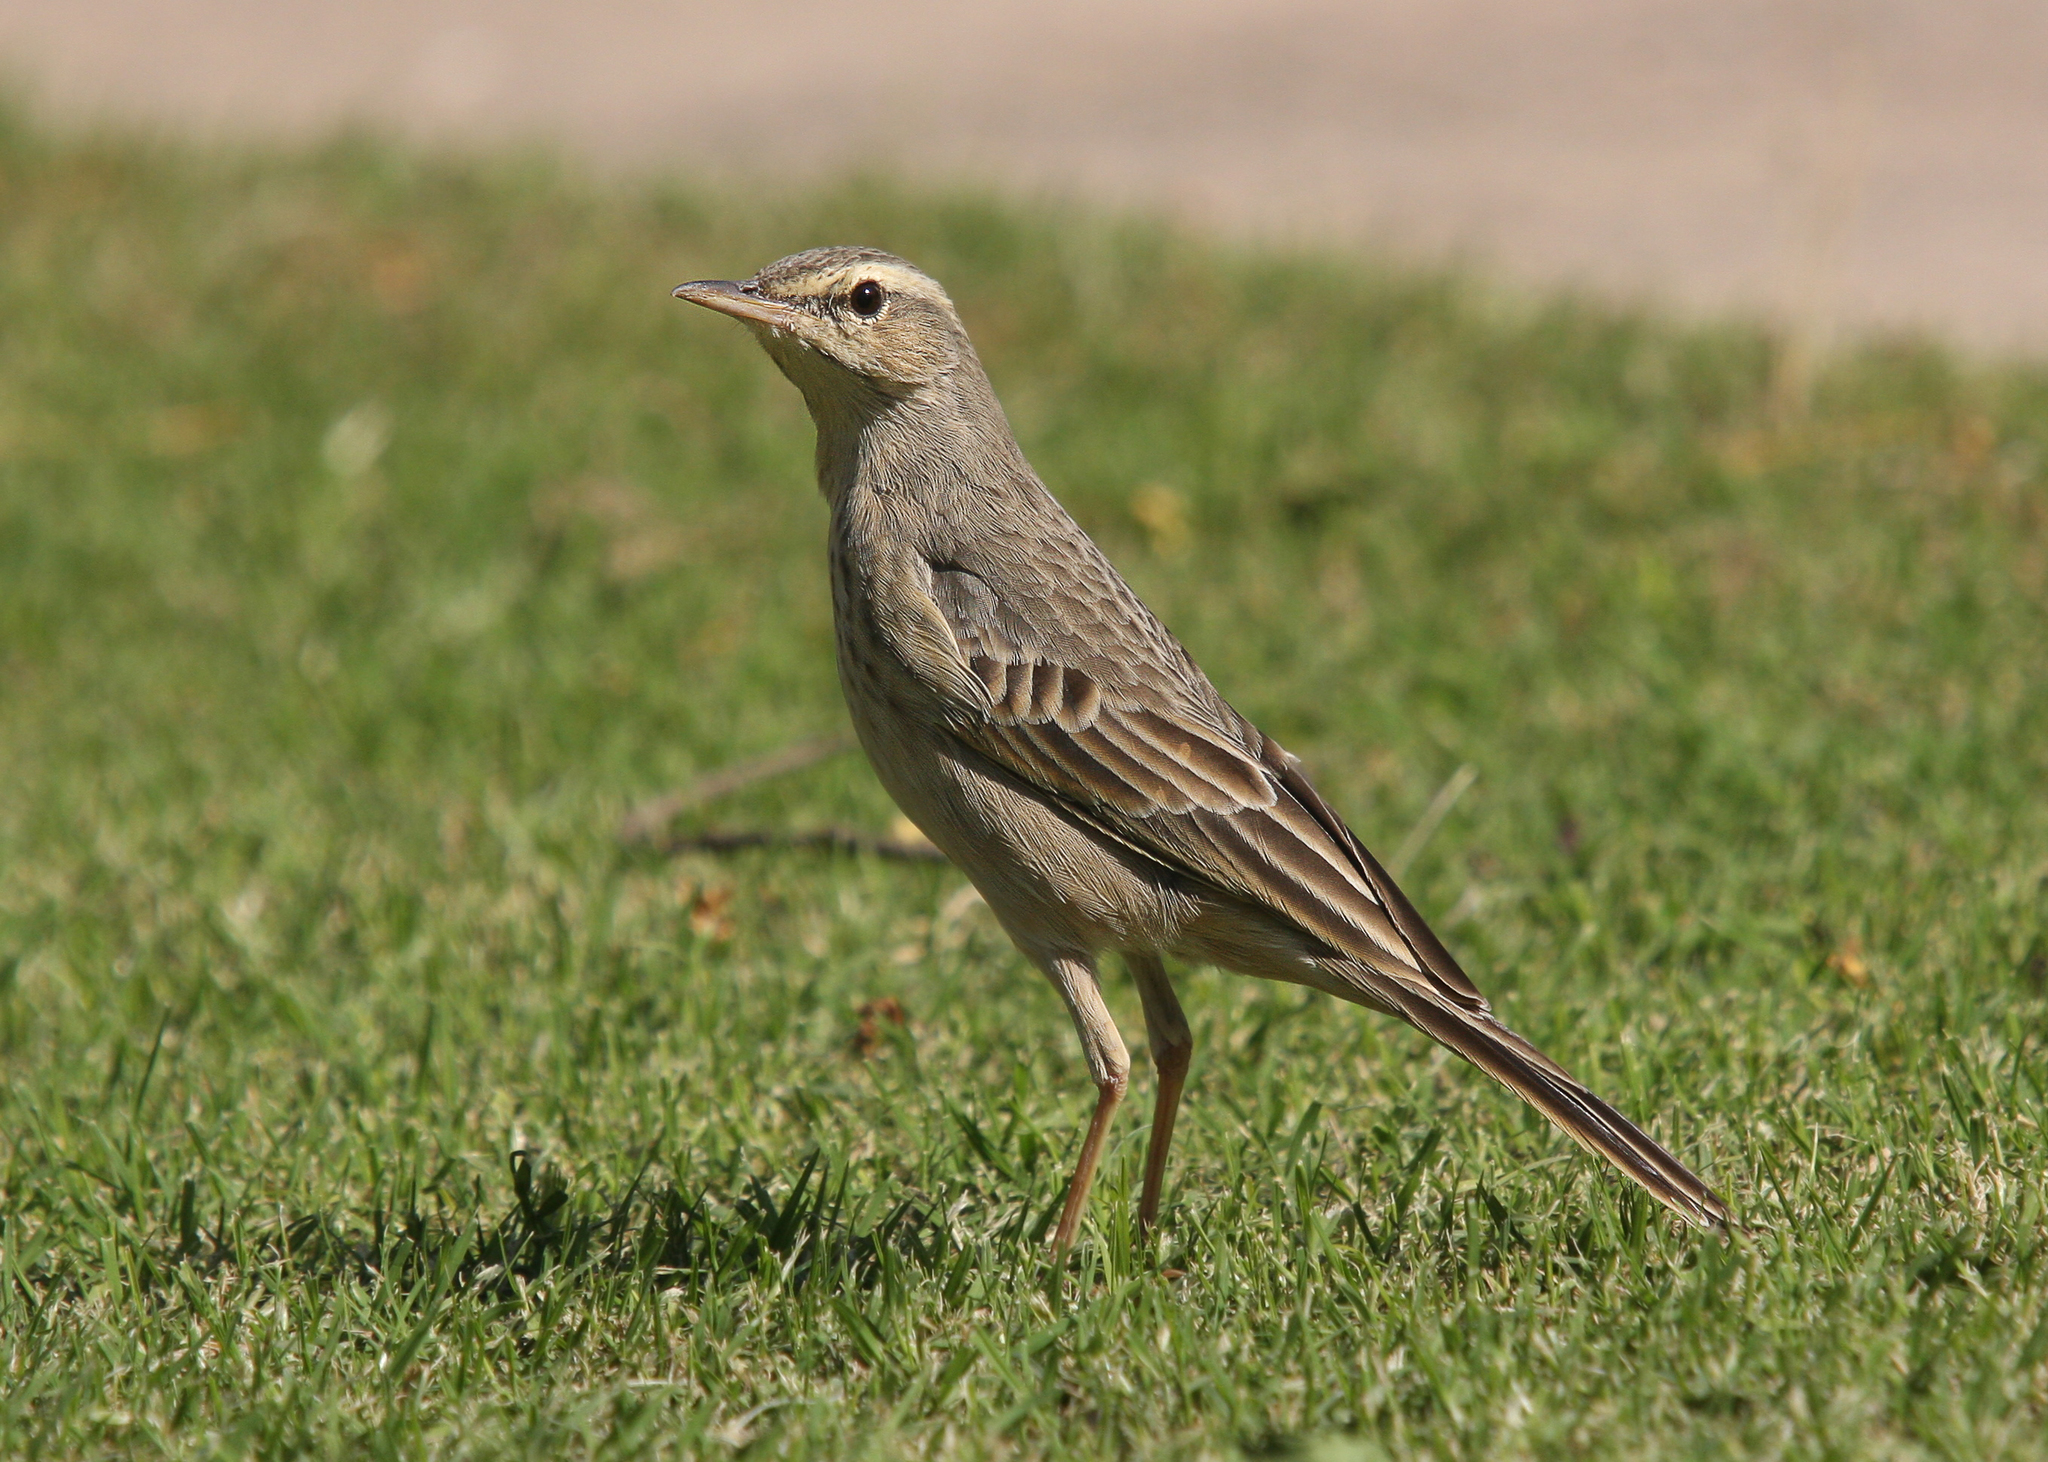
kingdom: Animalia
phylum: Chordata
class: Aves
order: Passeriformes
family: Motacillidae
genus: Anthus
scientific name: Anthus similis
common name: Long-billed pipit
